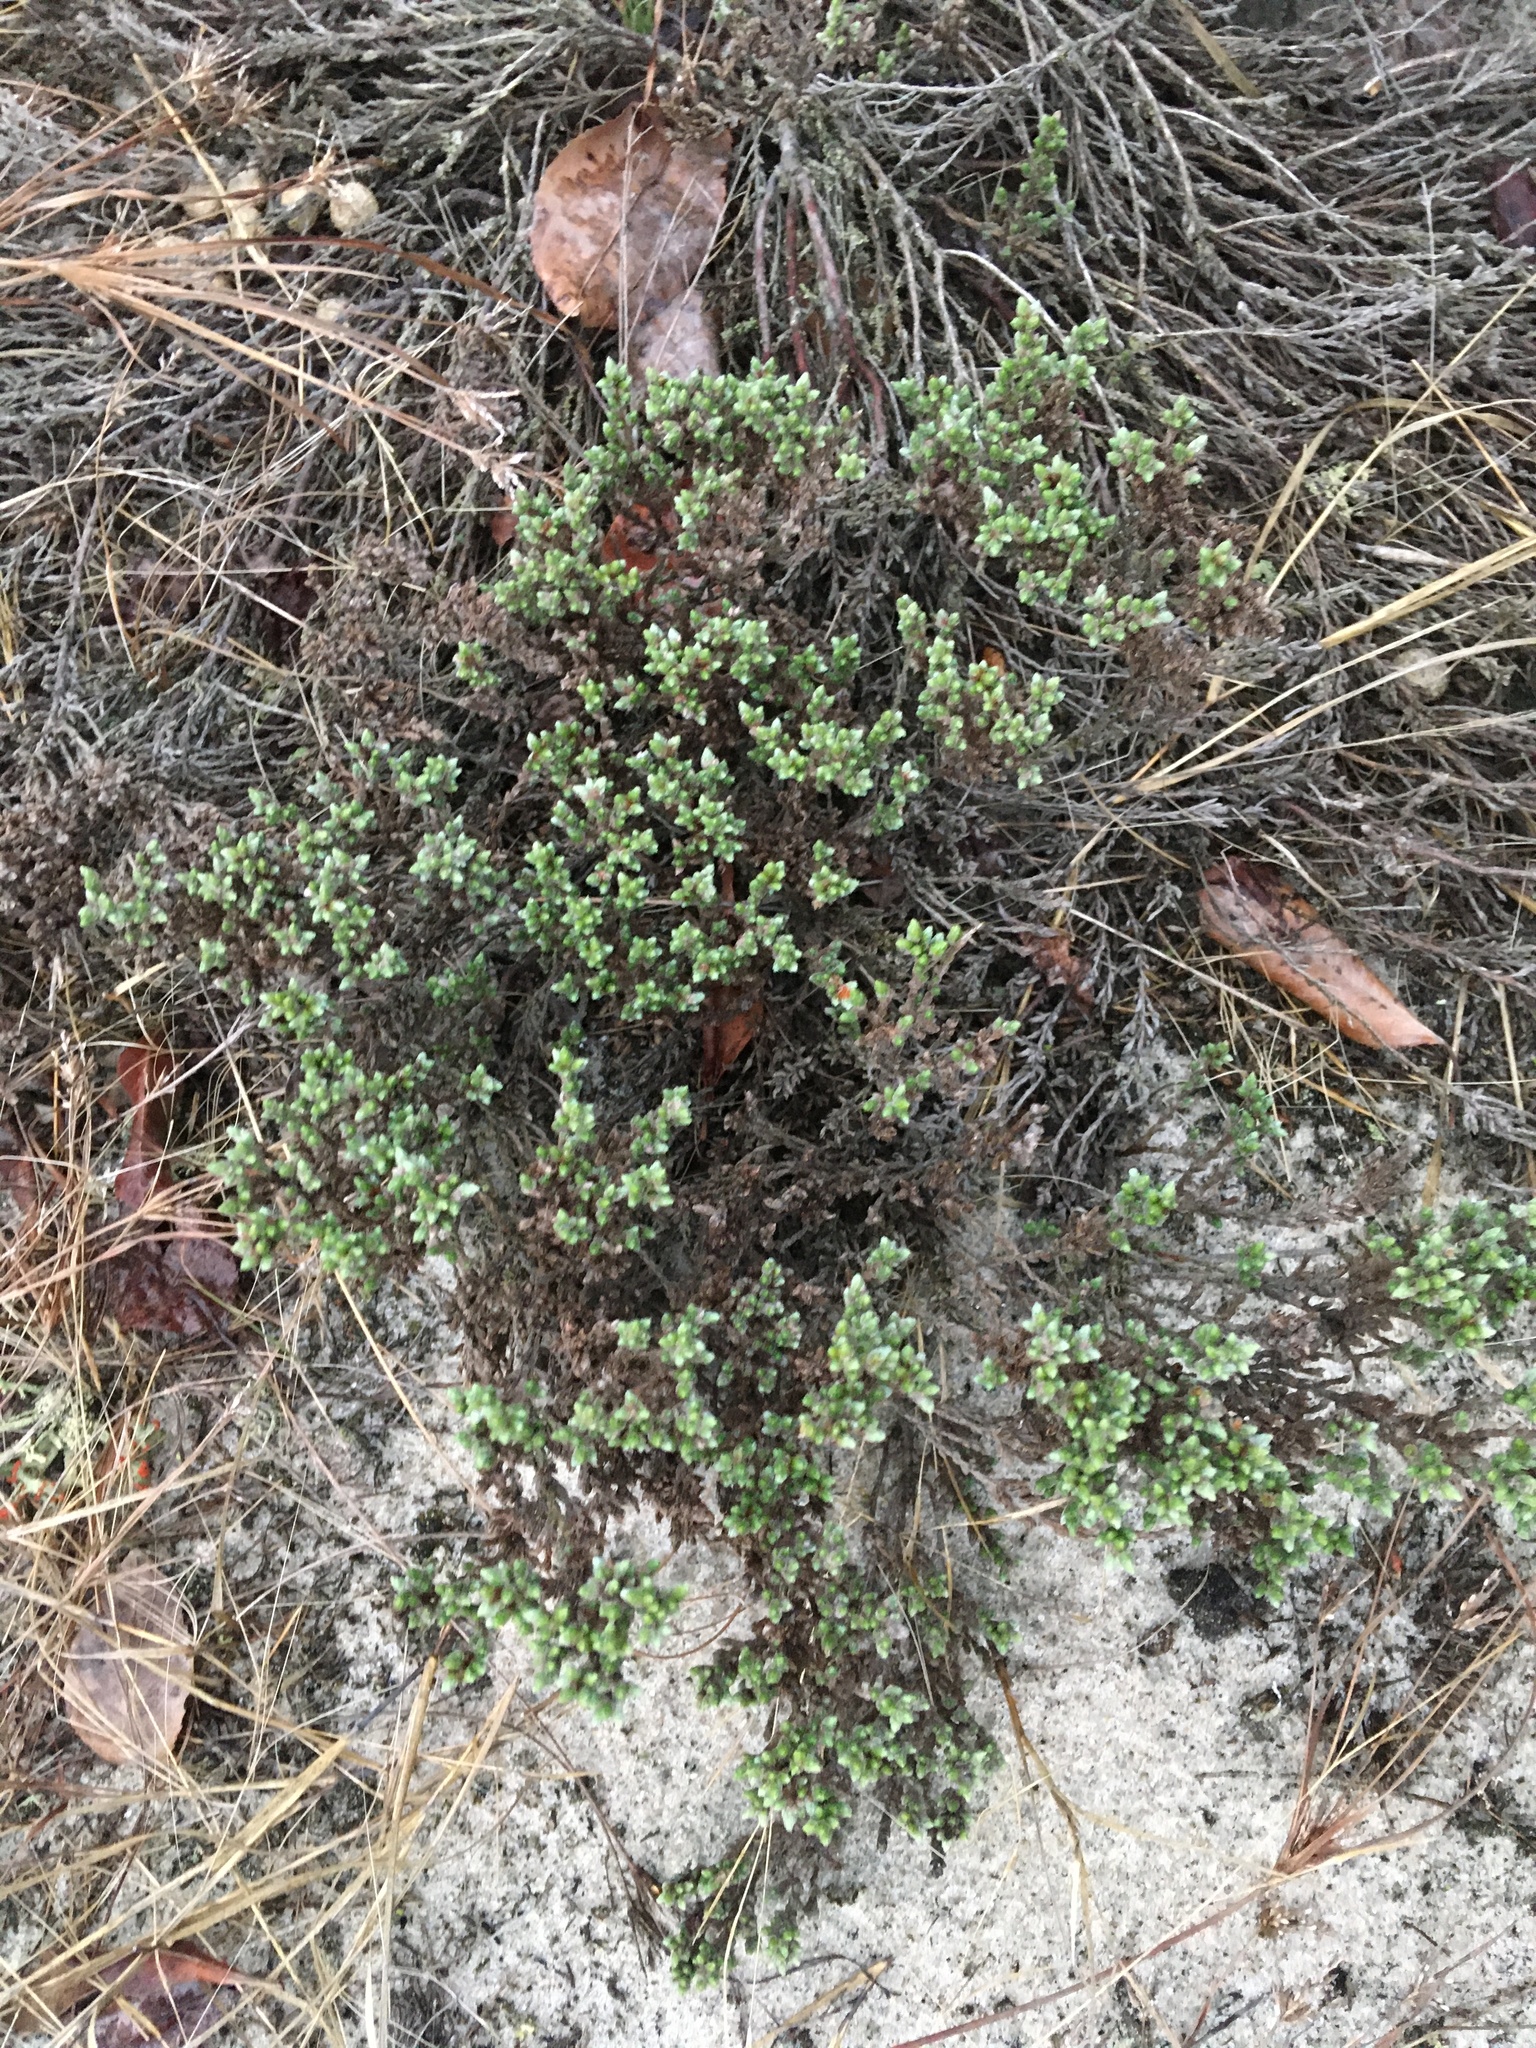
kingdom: Plantae
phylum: Tracheophyta
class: Magnoliopsida
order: Malvales
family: Cistaceae
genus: Hudsonia
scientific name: Hudsonia tomentosa
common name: Beach-heath
